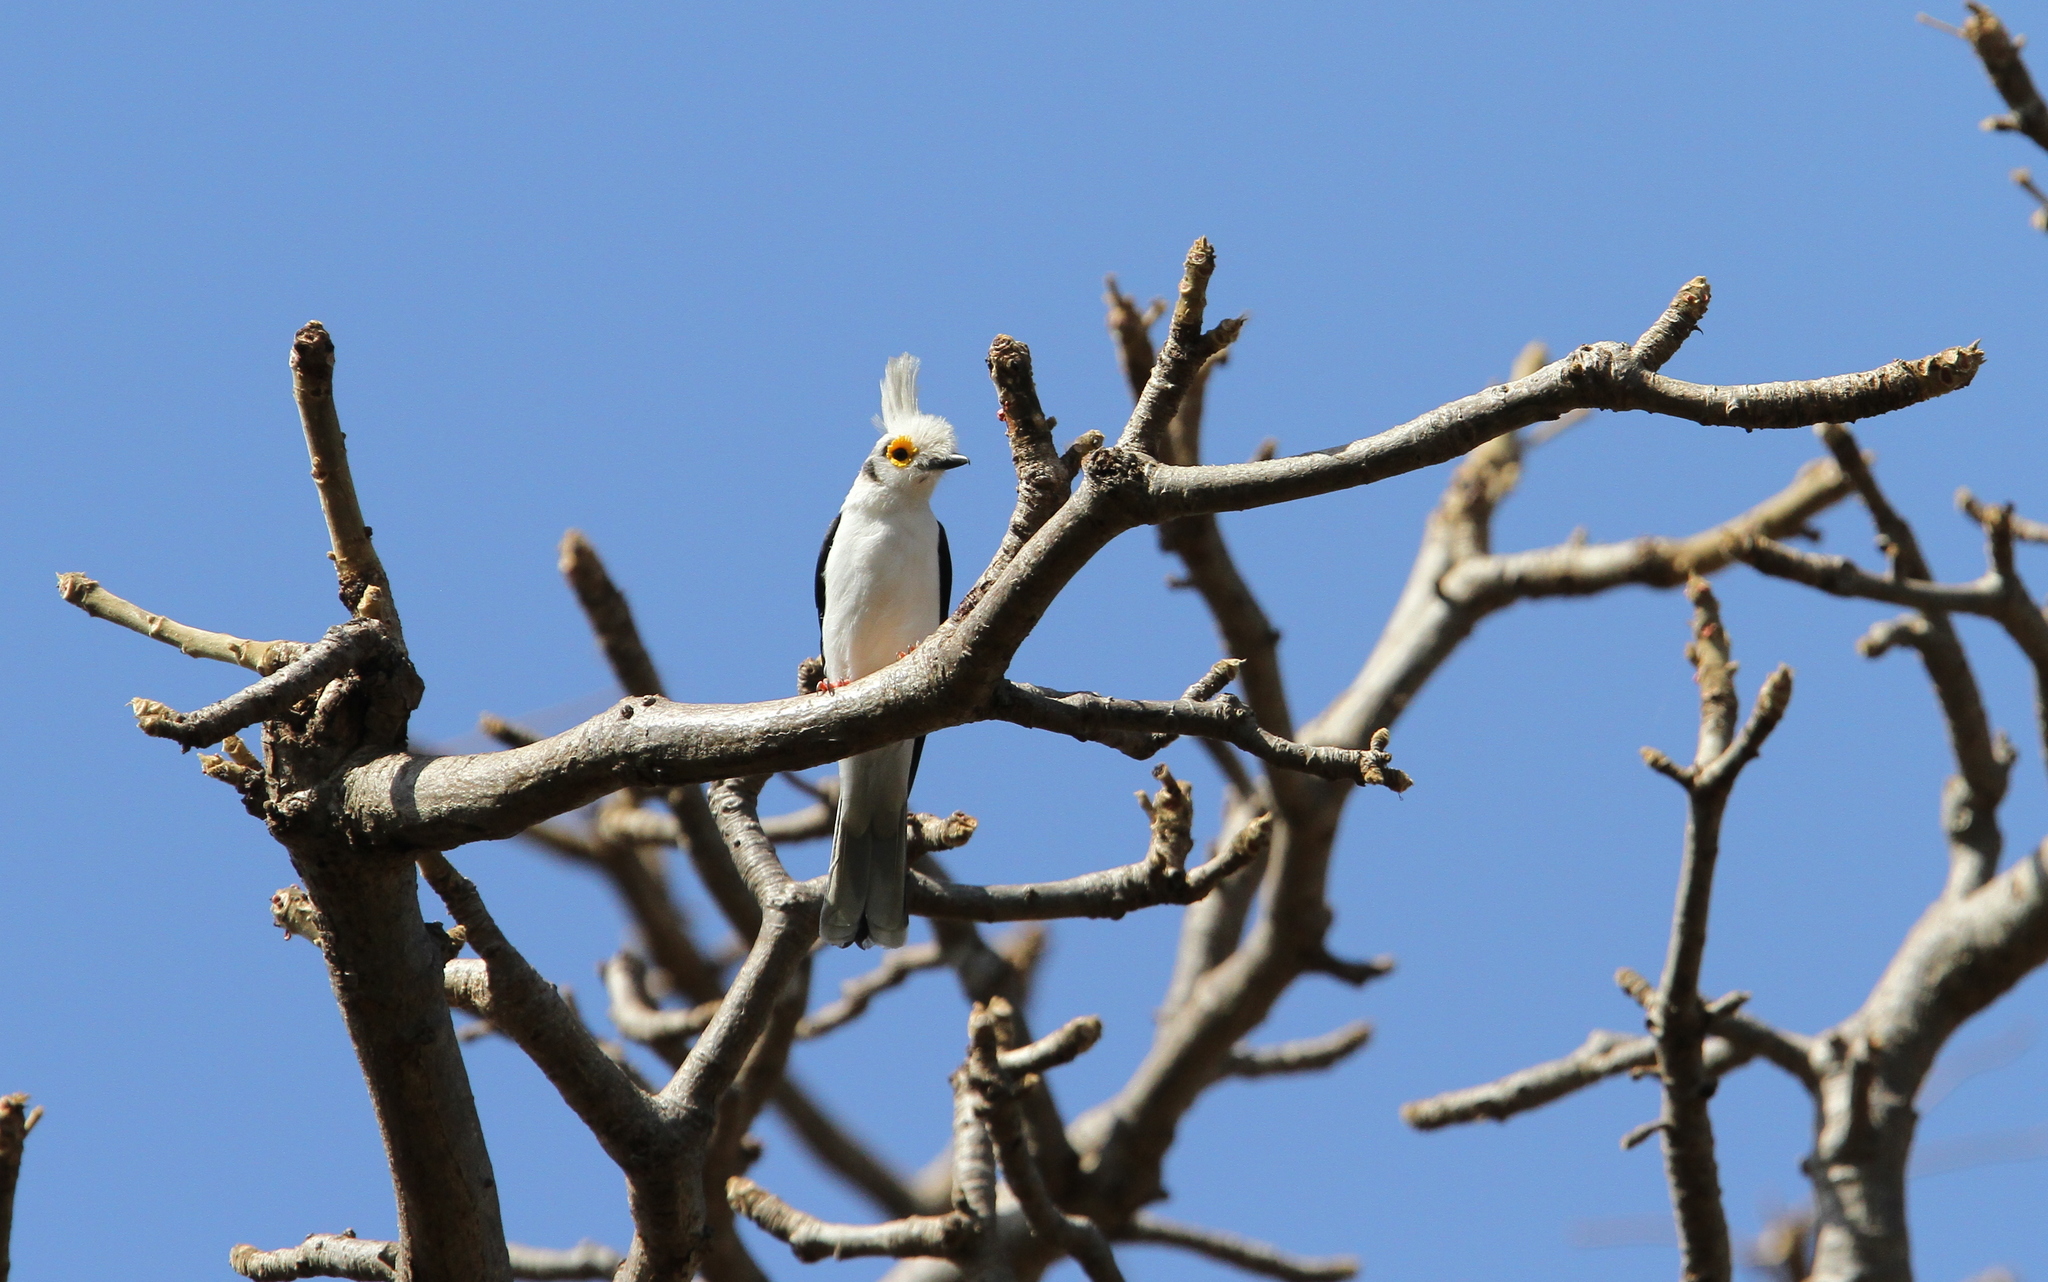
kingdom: Animalia
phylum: Chordata
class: Aves
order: Passeriformes
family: Prionopidae
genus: Prionops
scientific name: Prionops plumatus
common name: White-crested helmetshrike
